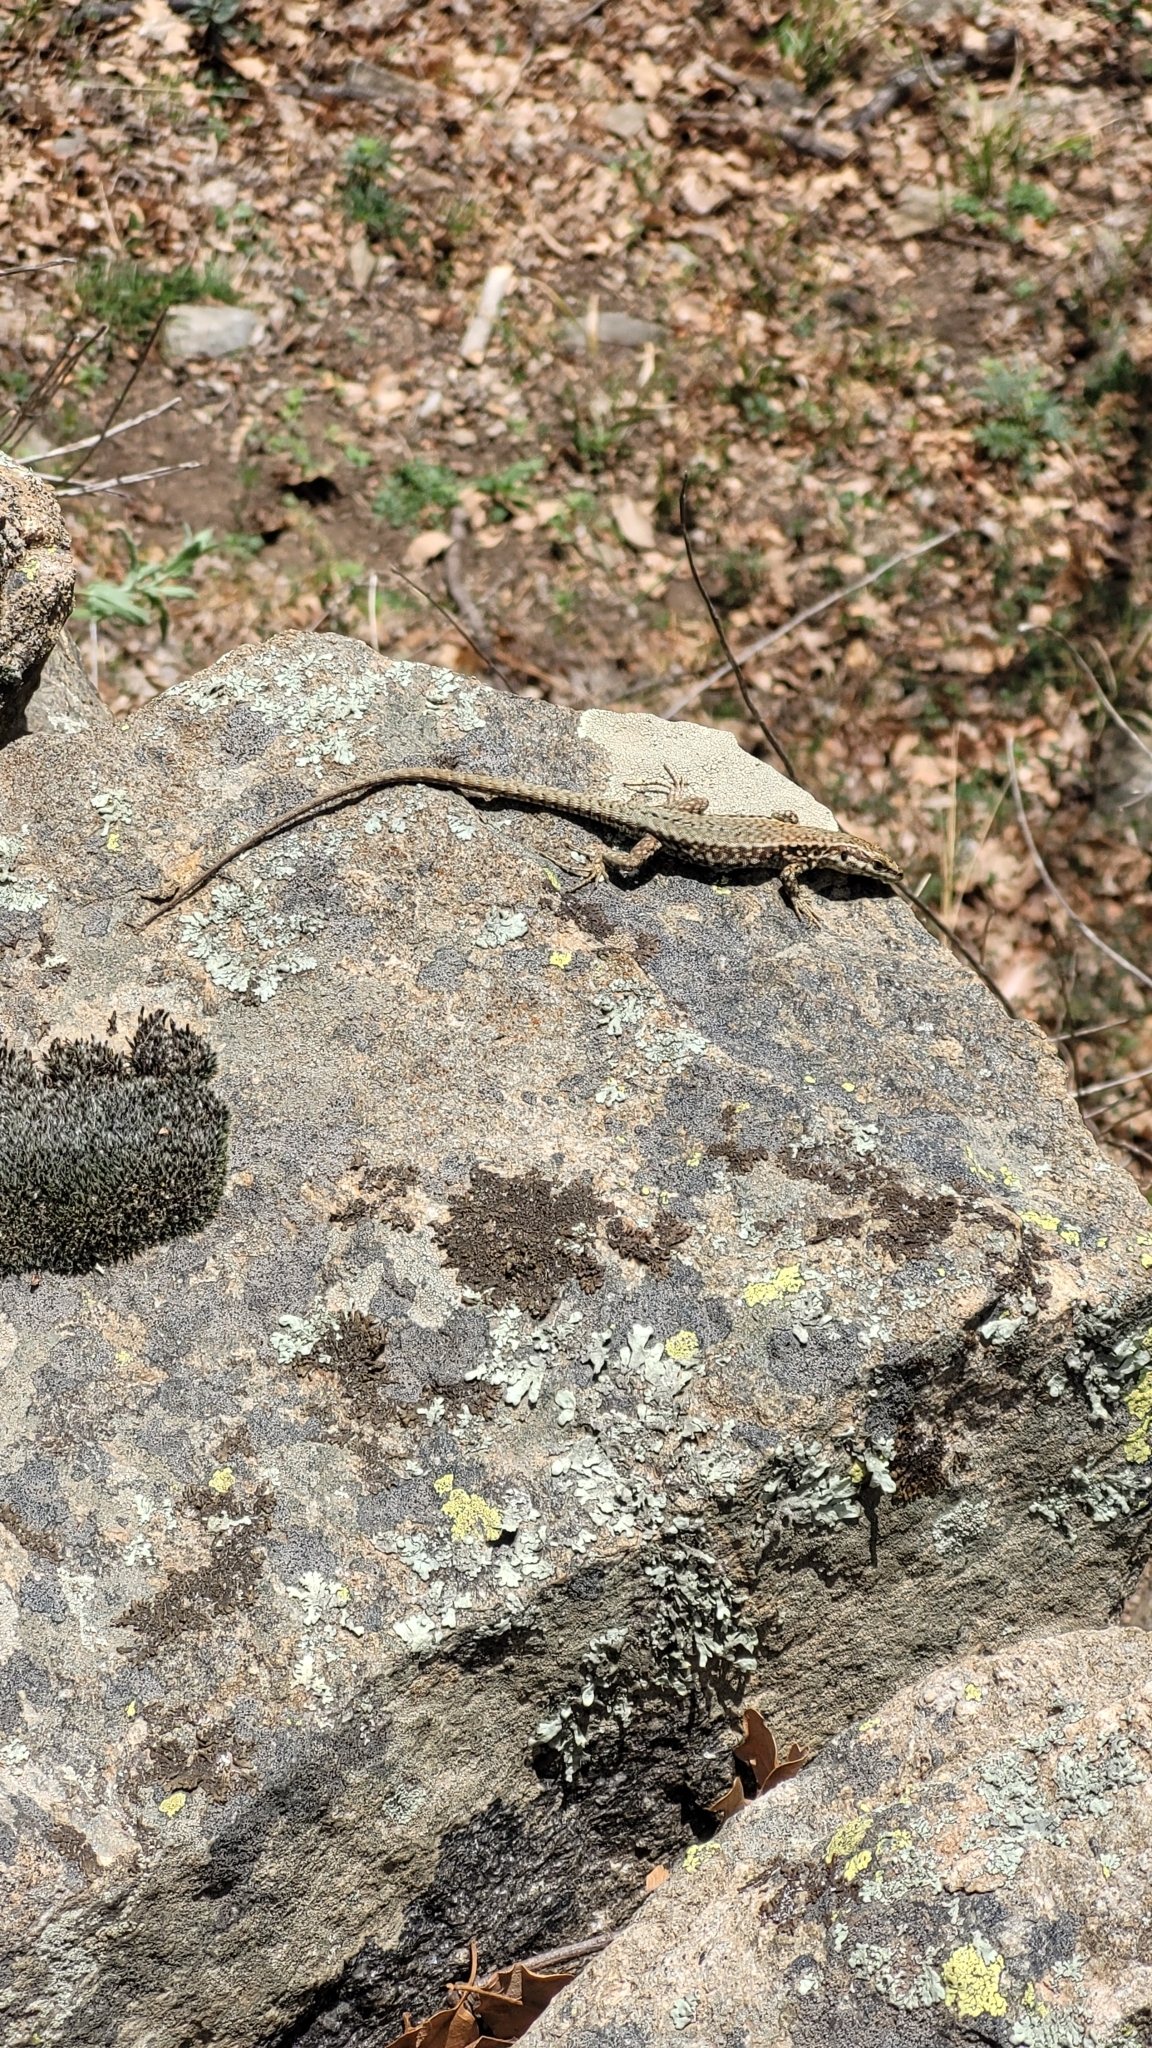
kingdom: Animalia
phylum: Chordata
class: Squamata
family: Lacertidae
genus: Podarcis
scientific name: Podarcis muralis
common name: Common wall lizard
